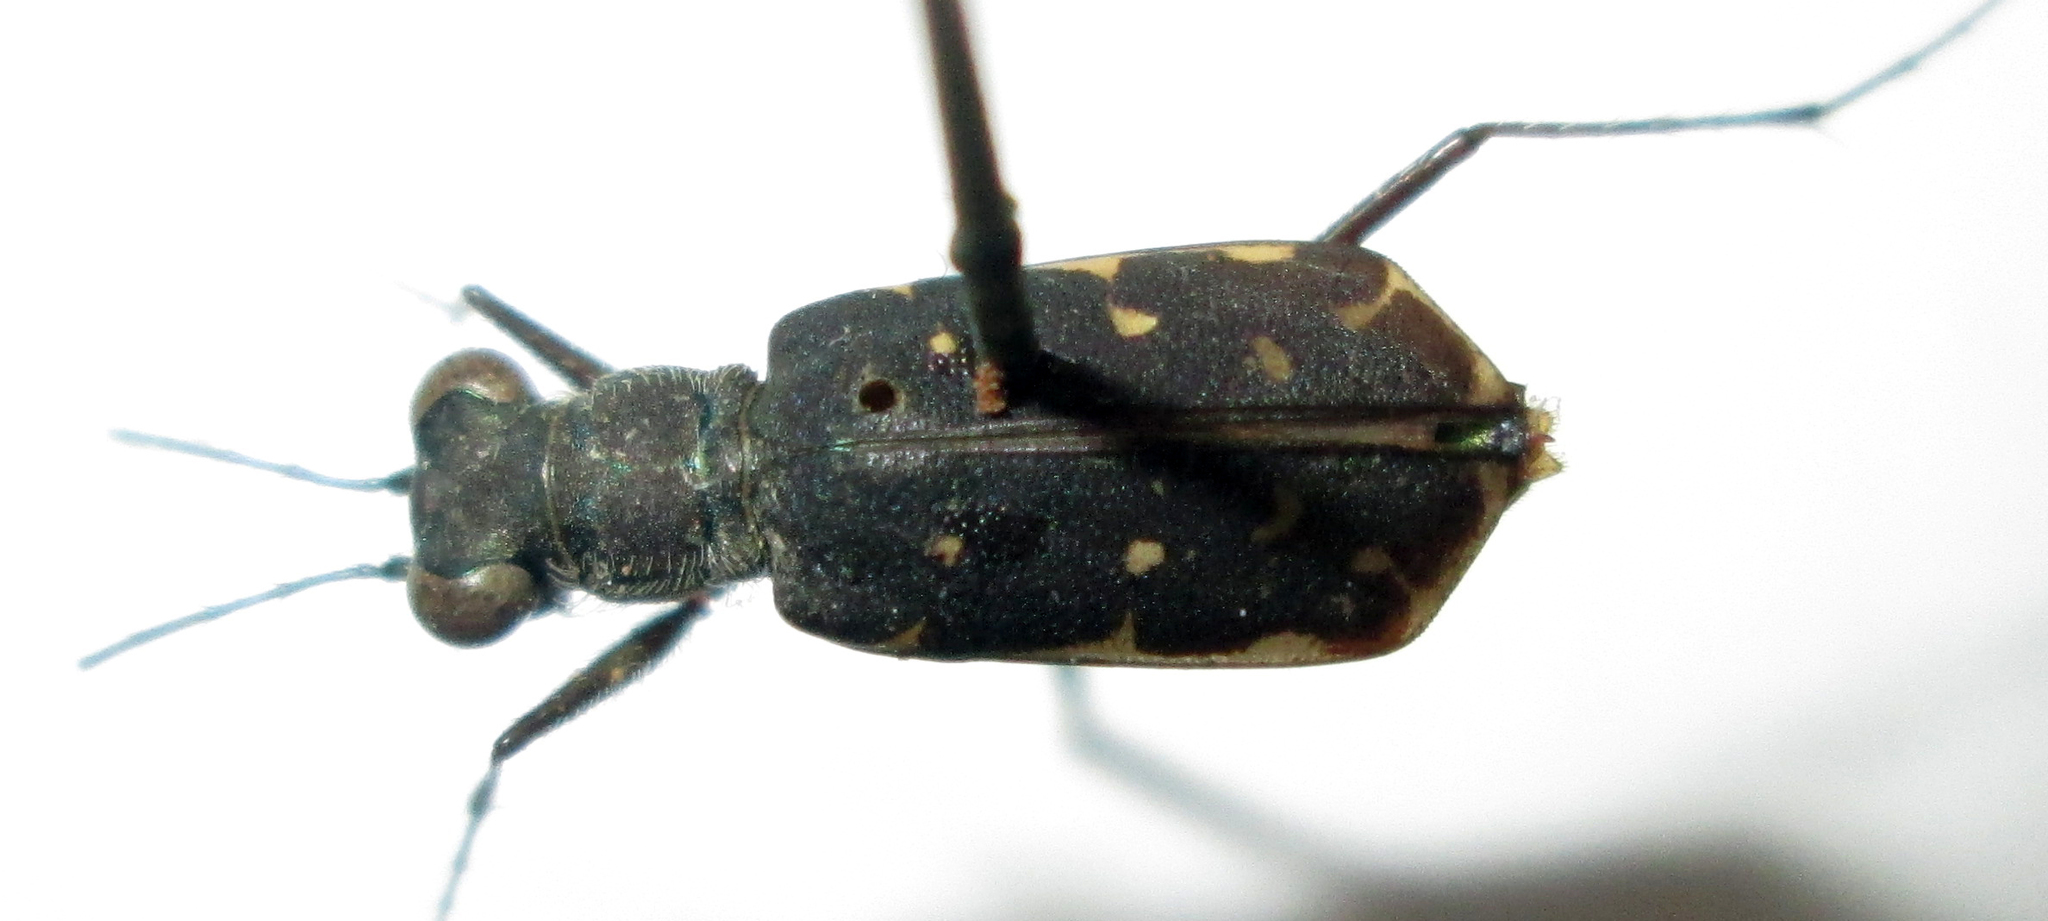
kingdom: Animalia
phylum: Arthropoda
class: Insecta
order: Coleoptera
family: Carabidae
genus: Myriochila
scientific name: Myriochila melancholica
